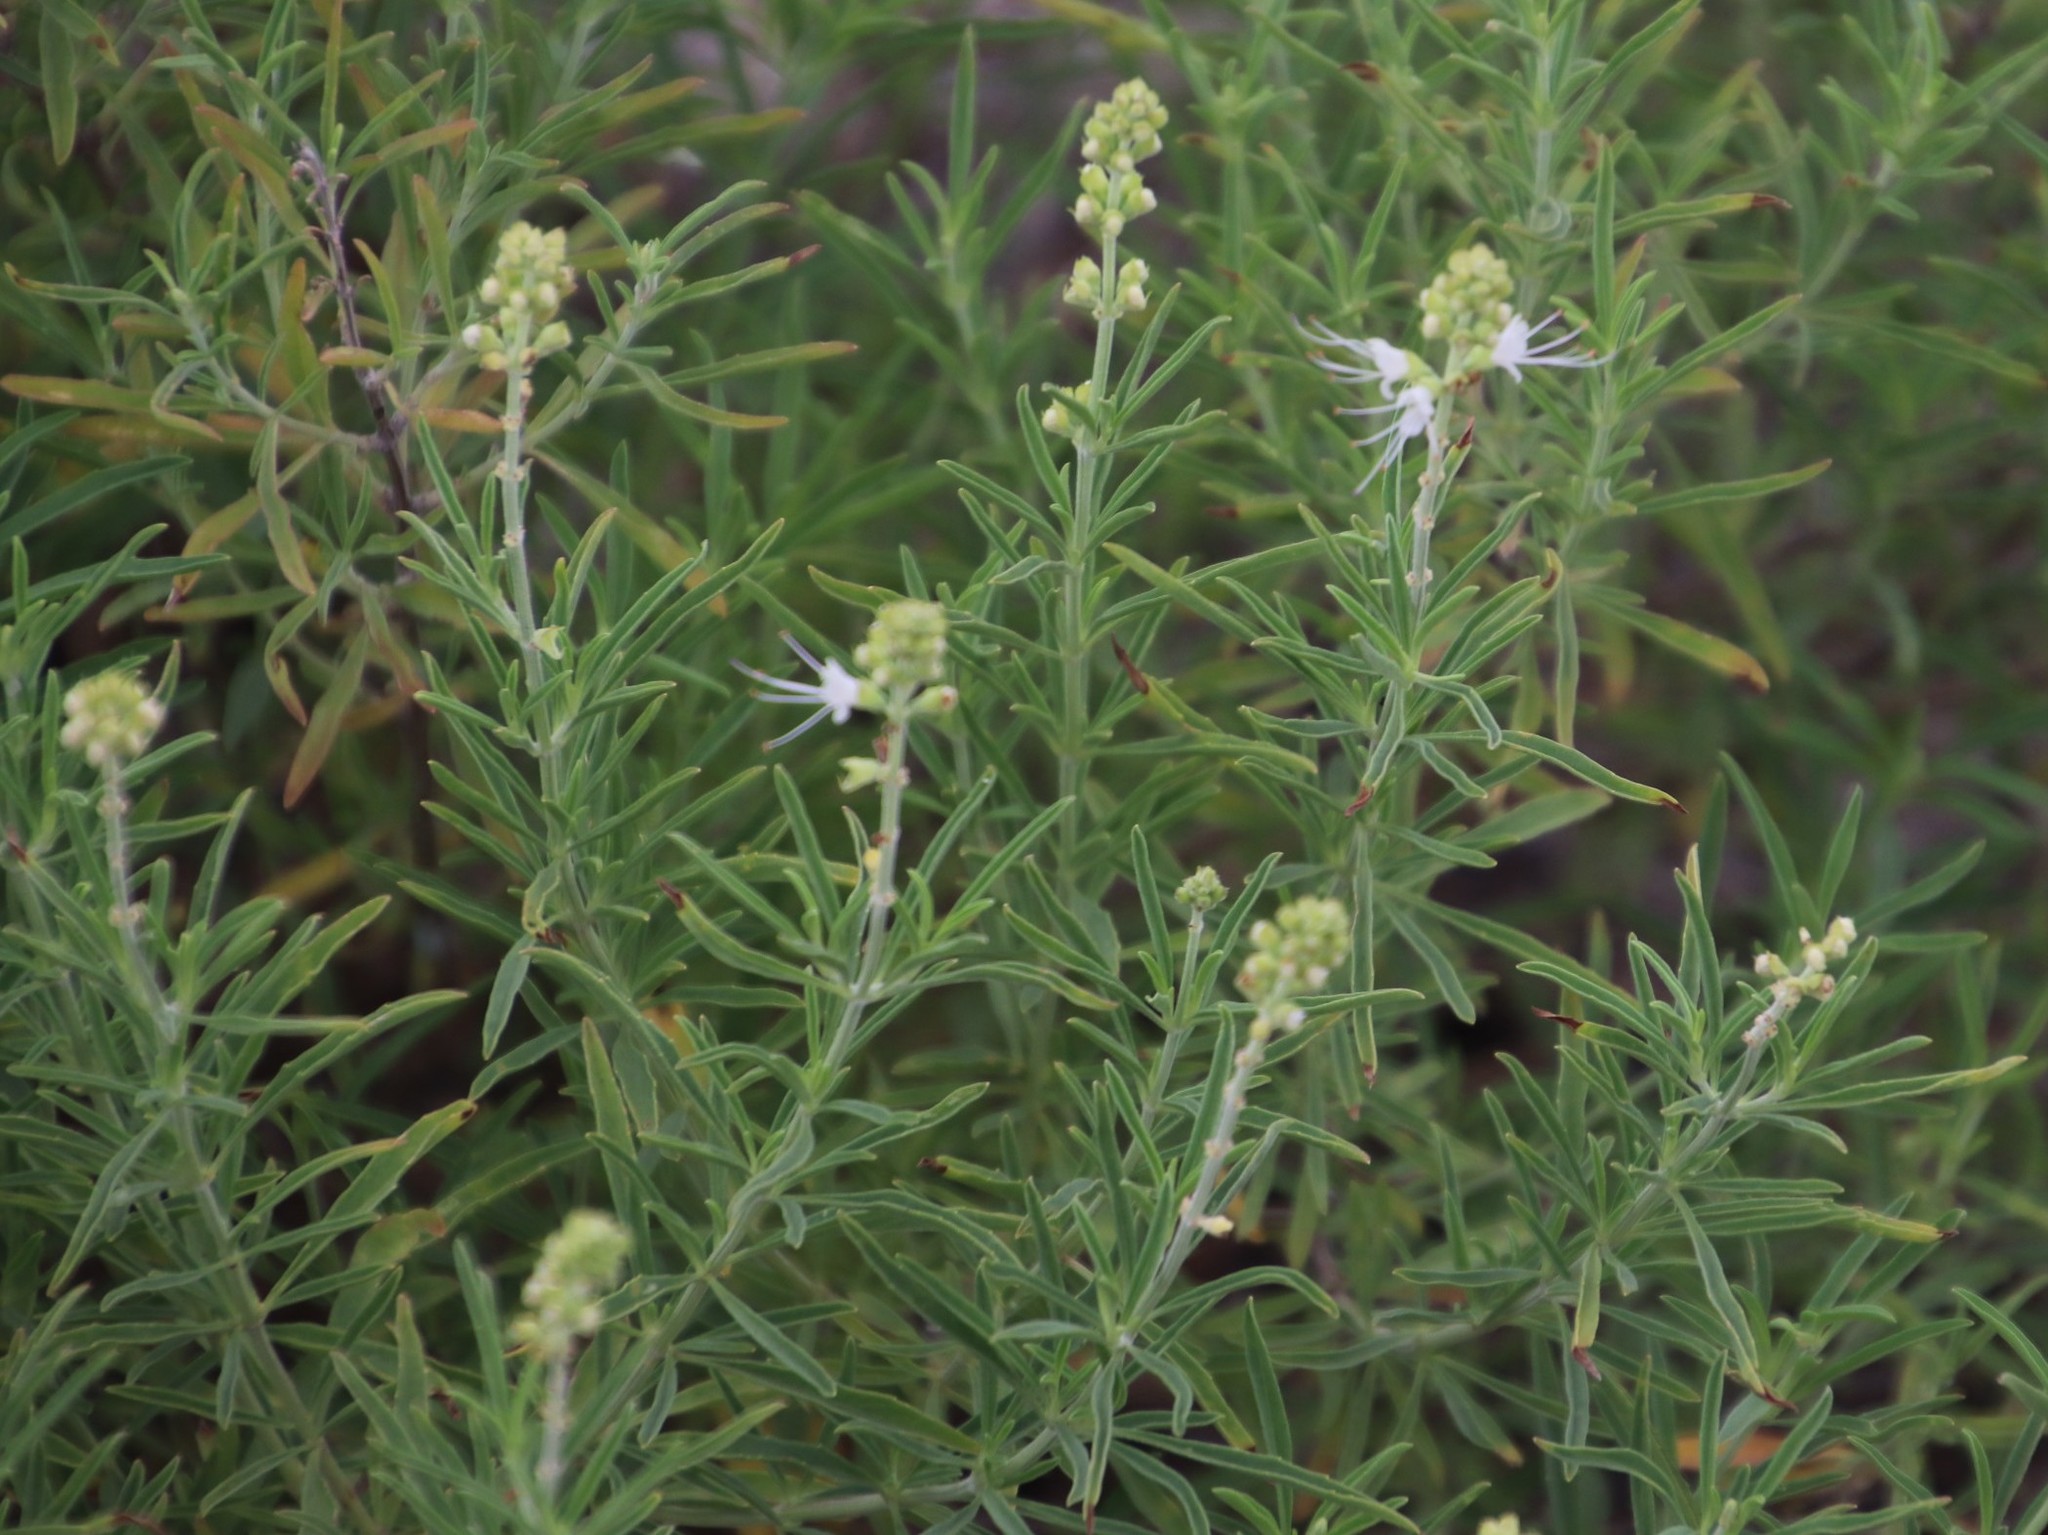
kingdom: Plantae
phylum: Tracheophyta
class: Magnoliopsida
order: Lamiales
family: Lamiaceae
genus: Ocimum
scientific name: Ocimum angustifolium
